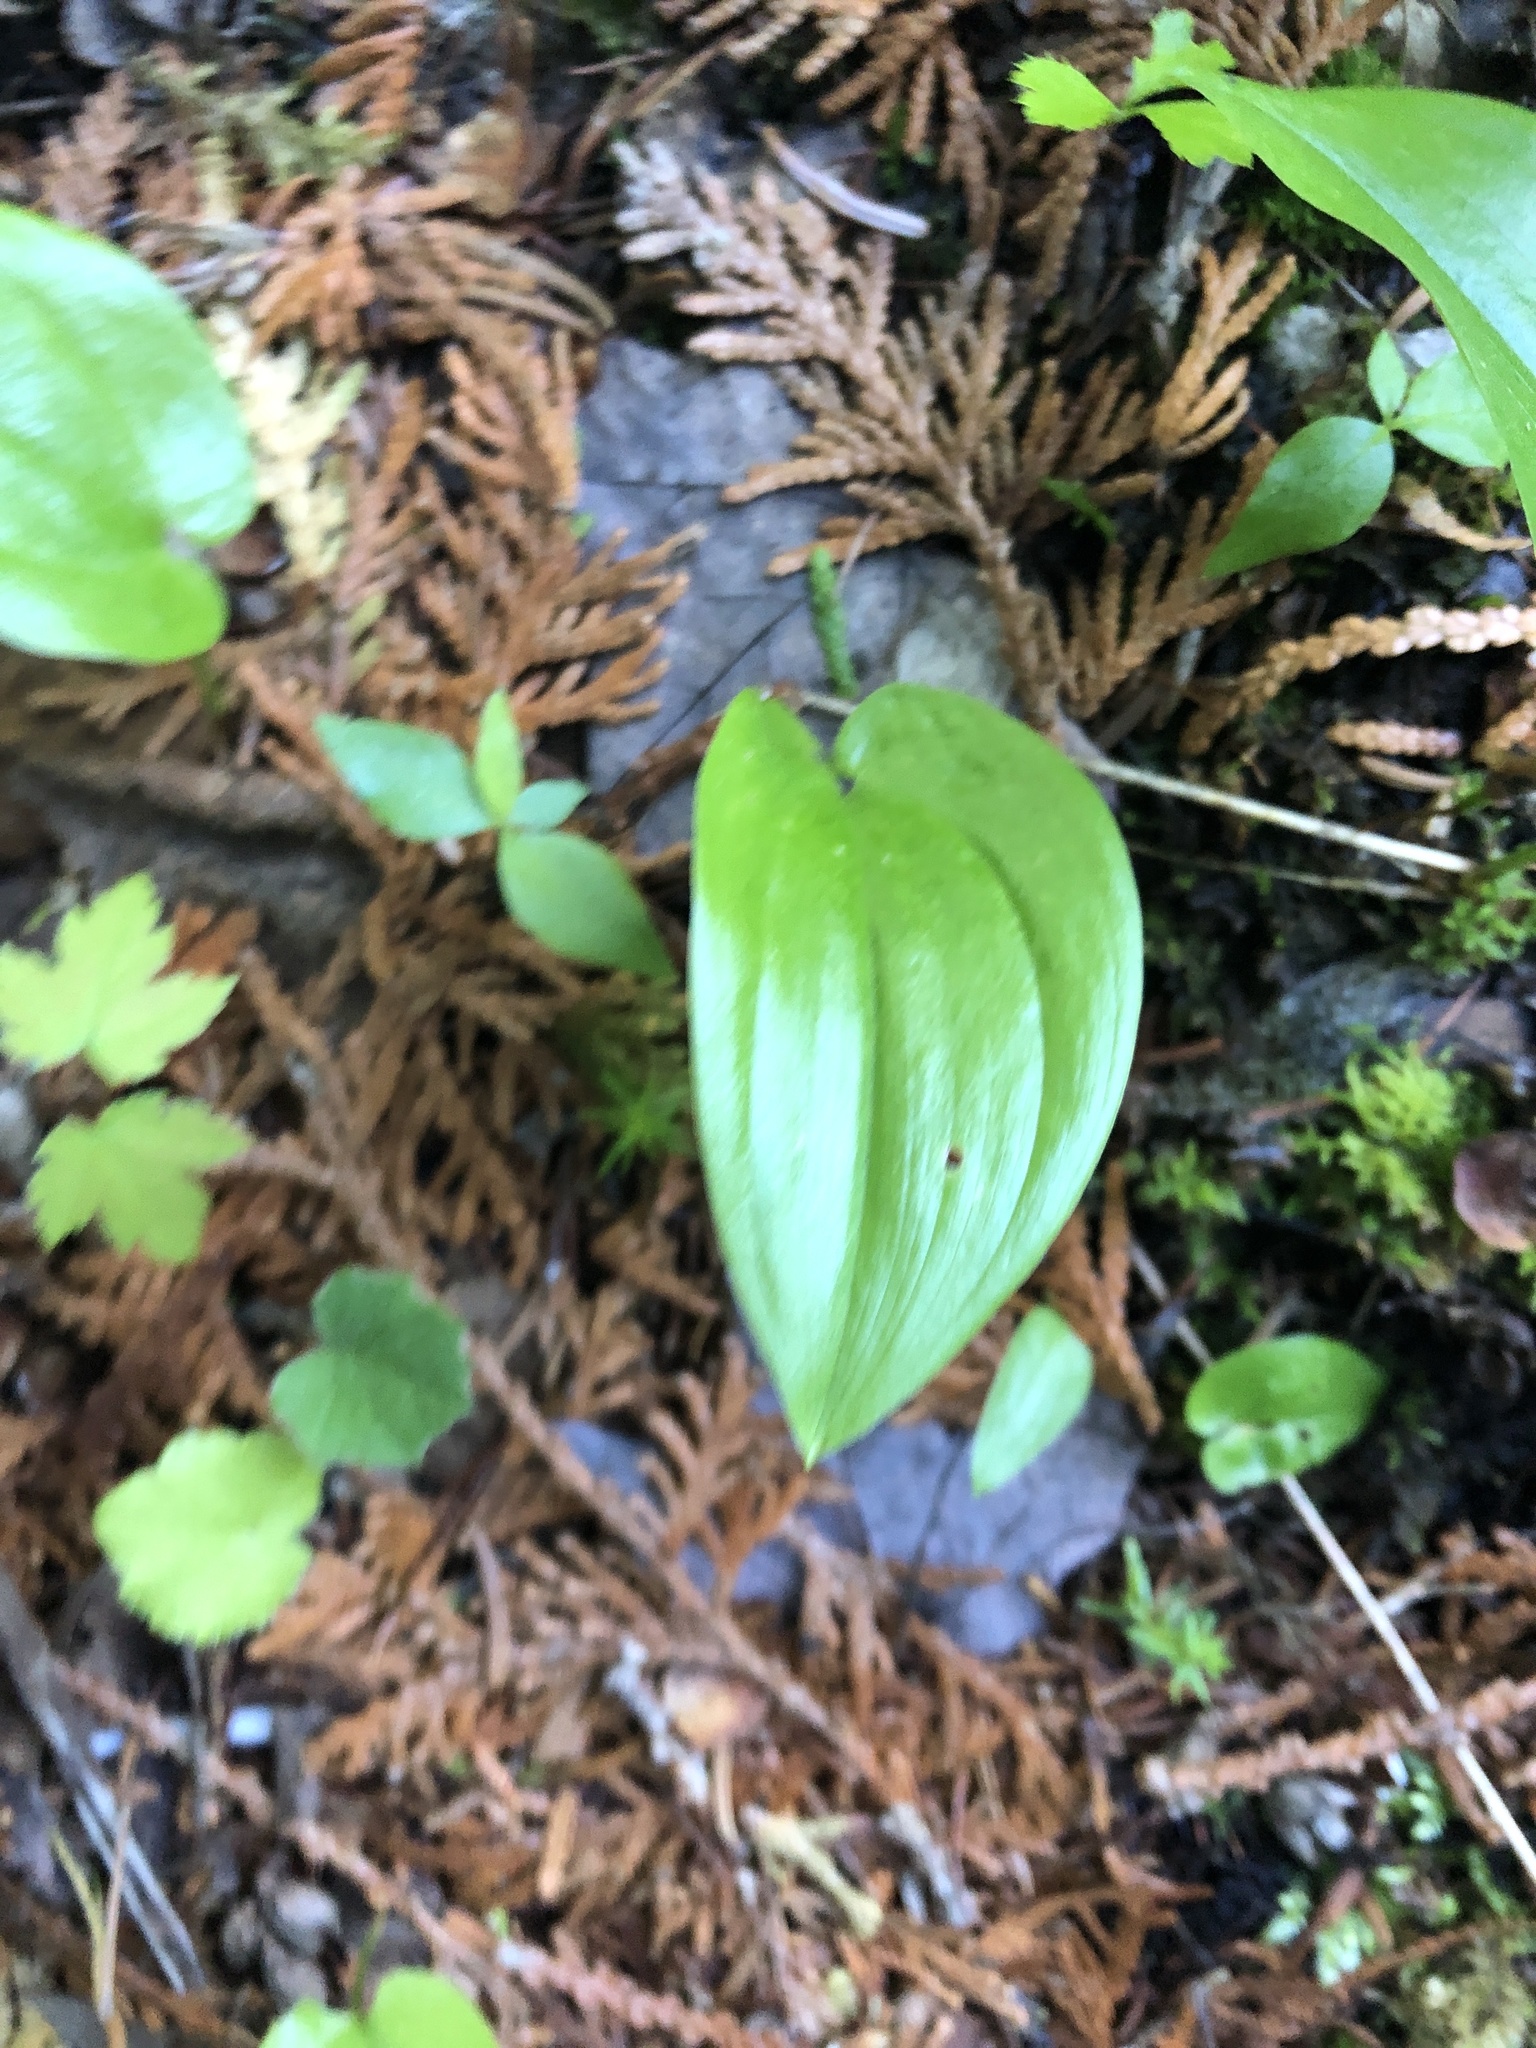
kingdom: Plantae
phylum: Tracheophyta
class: Liliopsida
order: Asparagales
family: Asparagaceae
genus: Maianthemum
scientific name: Maianthemum canadense
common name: False lily-of-the-valley
